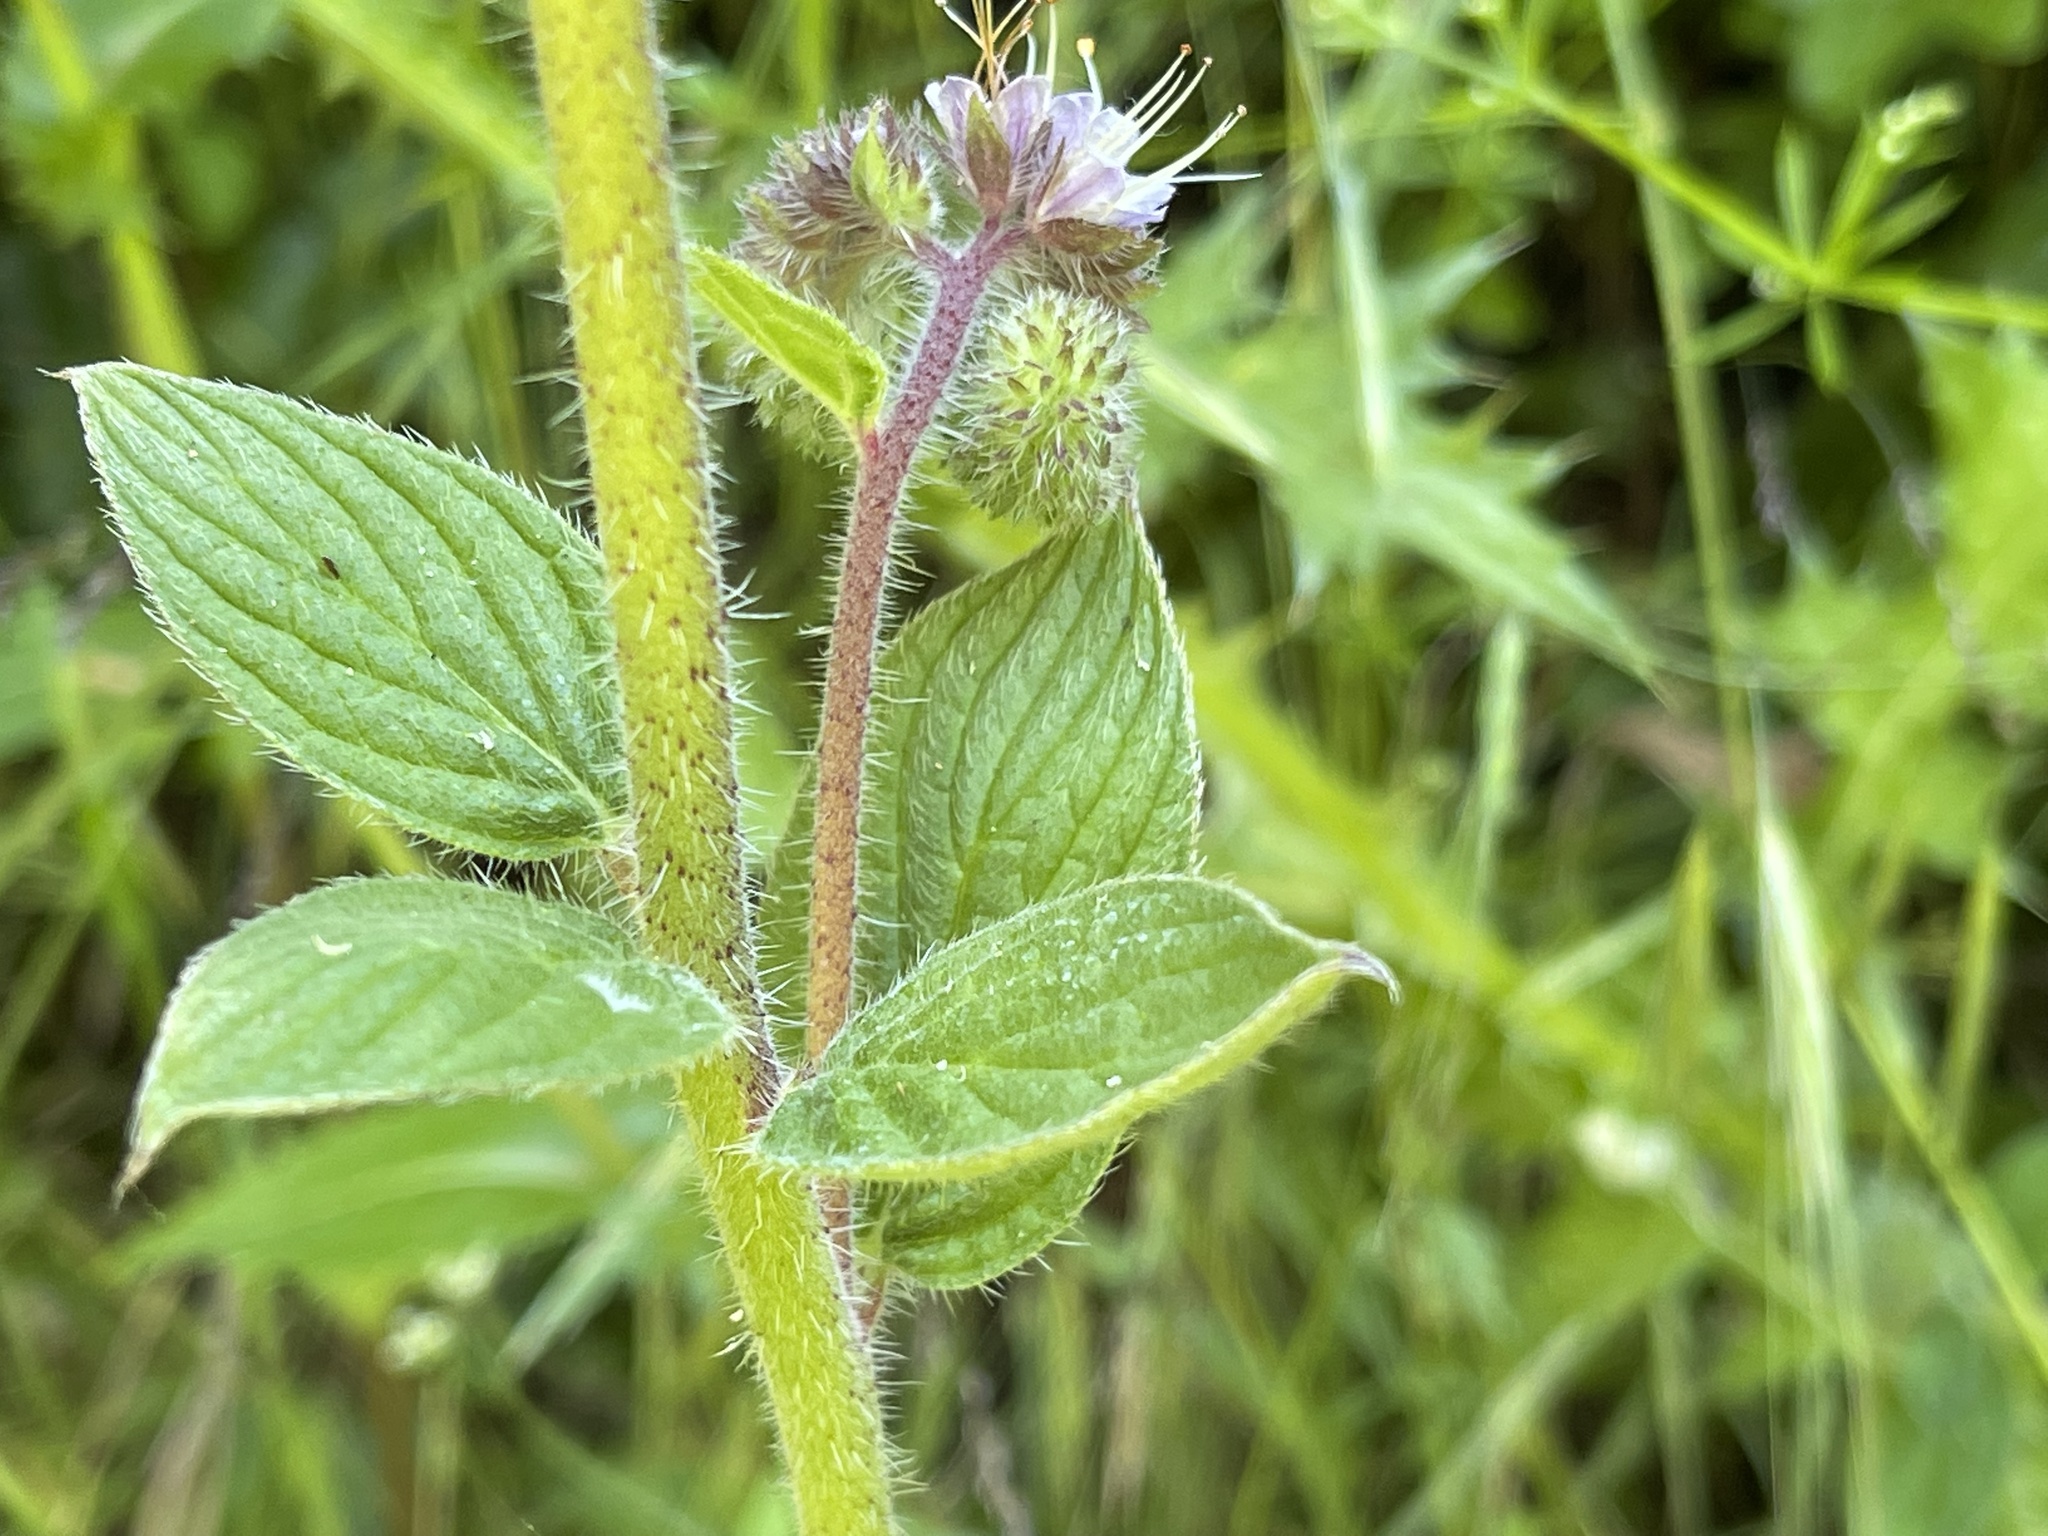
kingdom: Plantae
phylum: Tracheophyta
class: Magnoliopsida
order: Boraginales
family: Hydrophyllaceae
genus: Phacelia
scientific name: Phacelia californica
